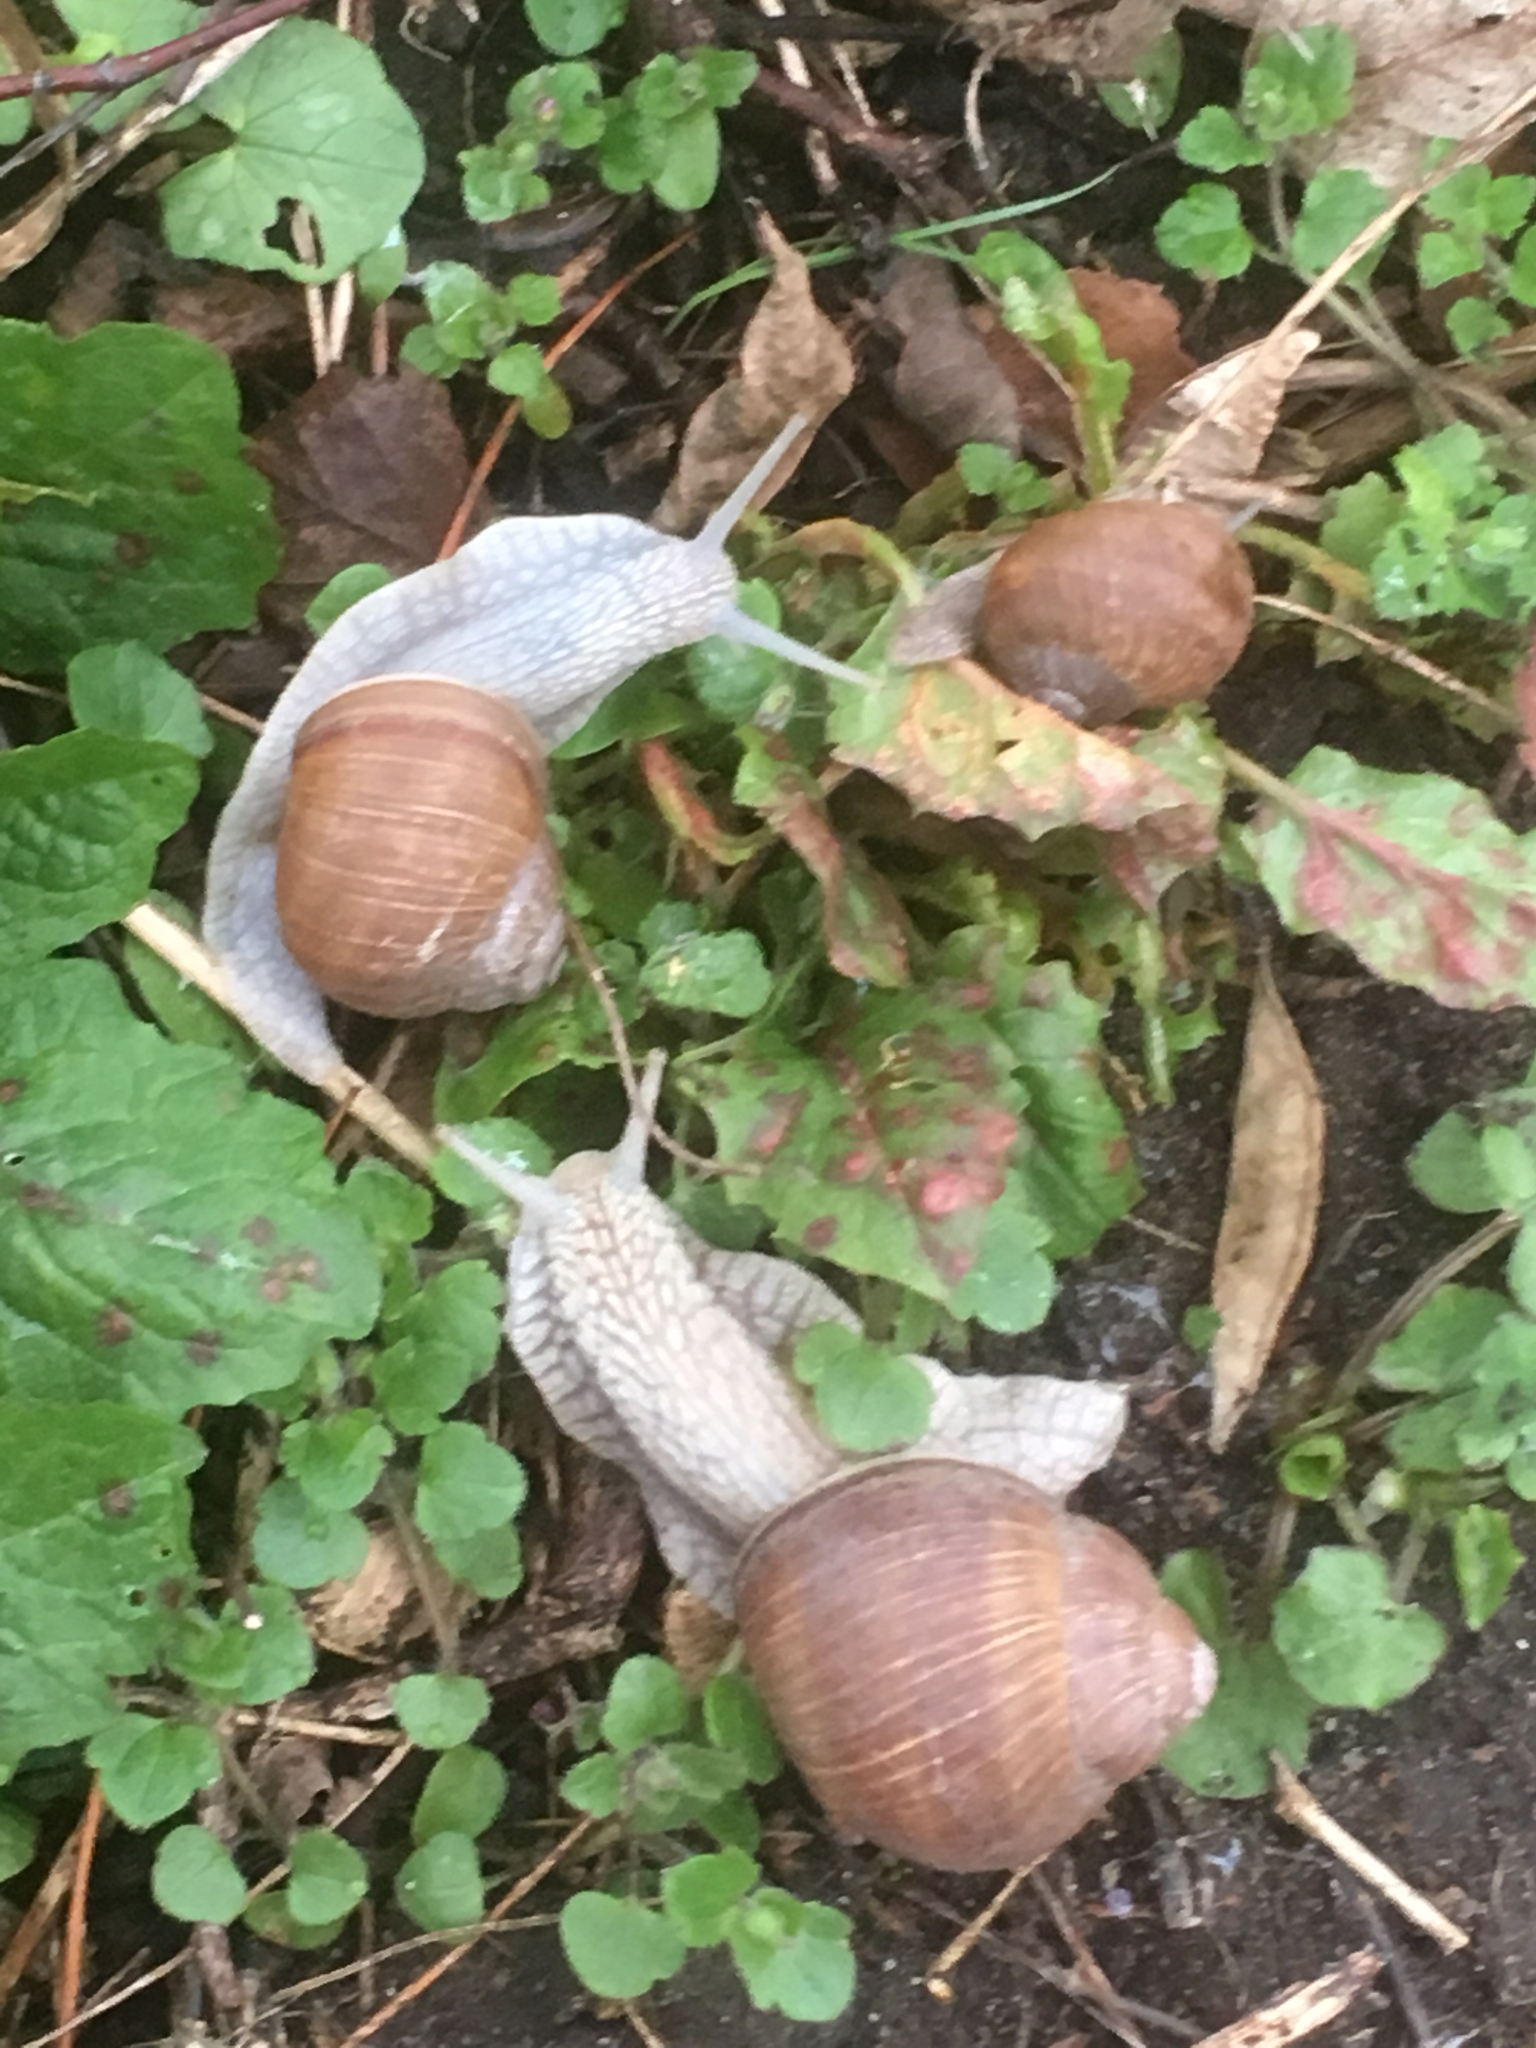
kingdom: Animalia
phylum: Mollusca
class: Gastropoda
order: Stylommatophora
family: Helicidae
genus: Helix
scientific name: Helix pomatia
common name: Roman snail
